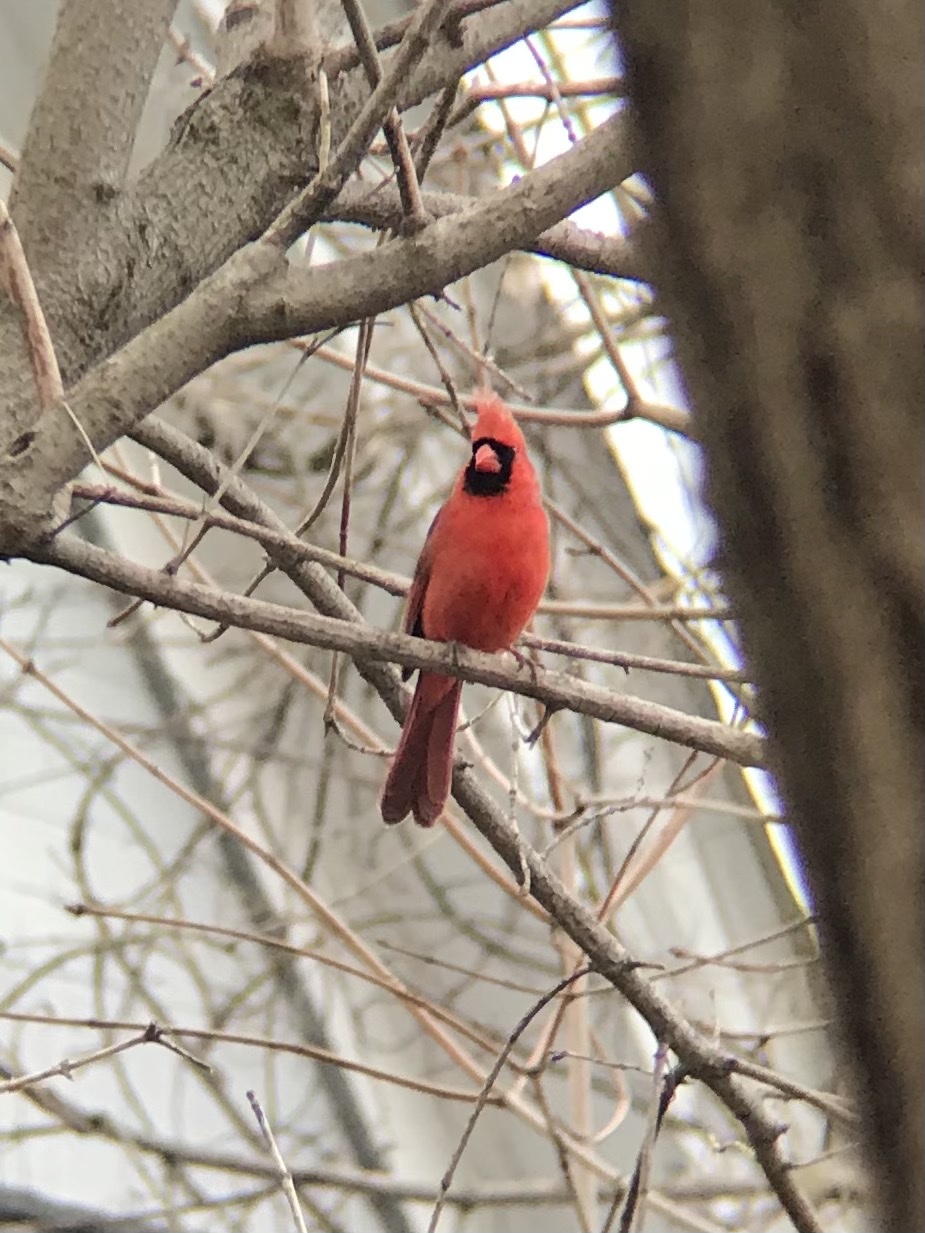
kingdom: Animalia
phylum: Chordata
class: Aves
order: Passeriformes
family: Cardinalidae
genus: Cardinalis
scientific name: Cardinalis cardinalis
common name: Northern cardinal
